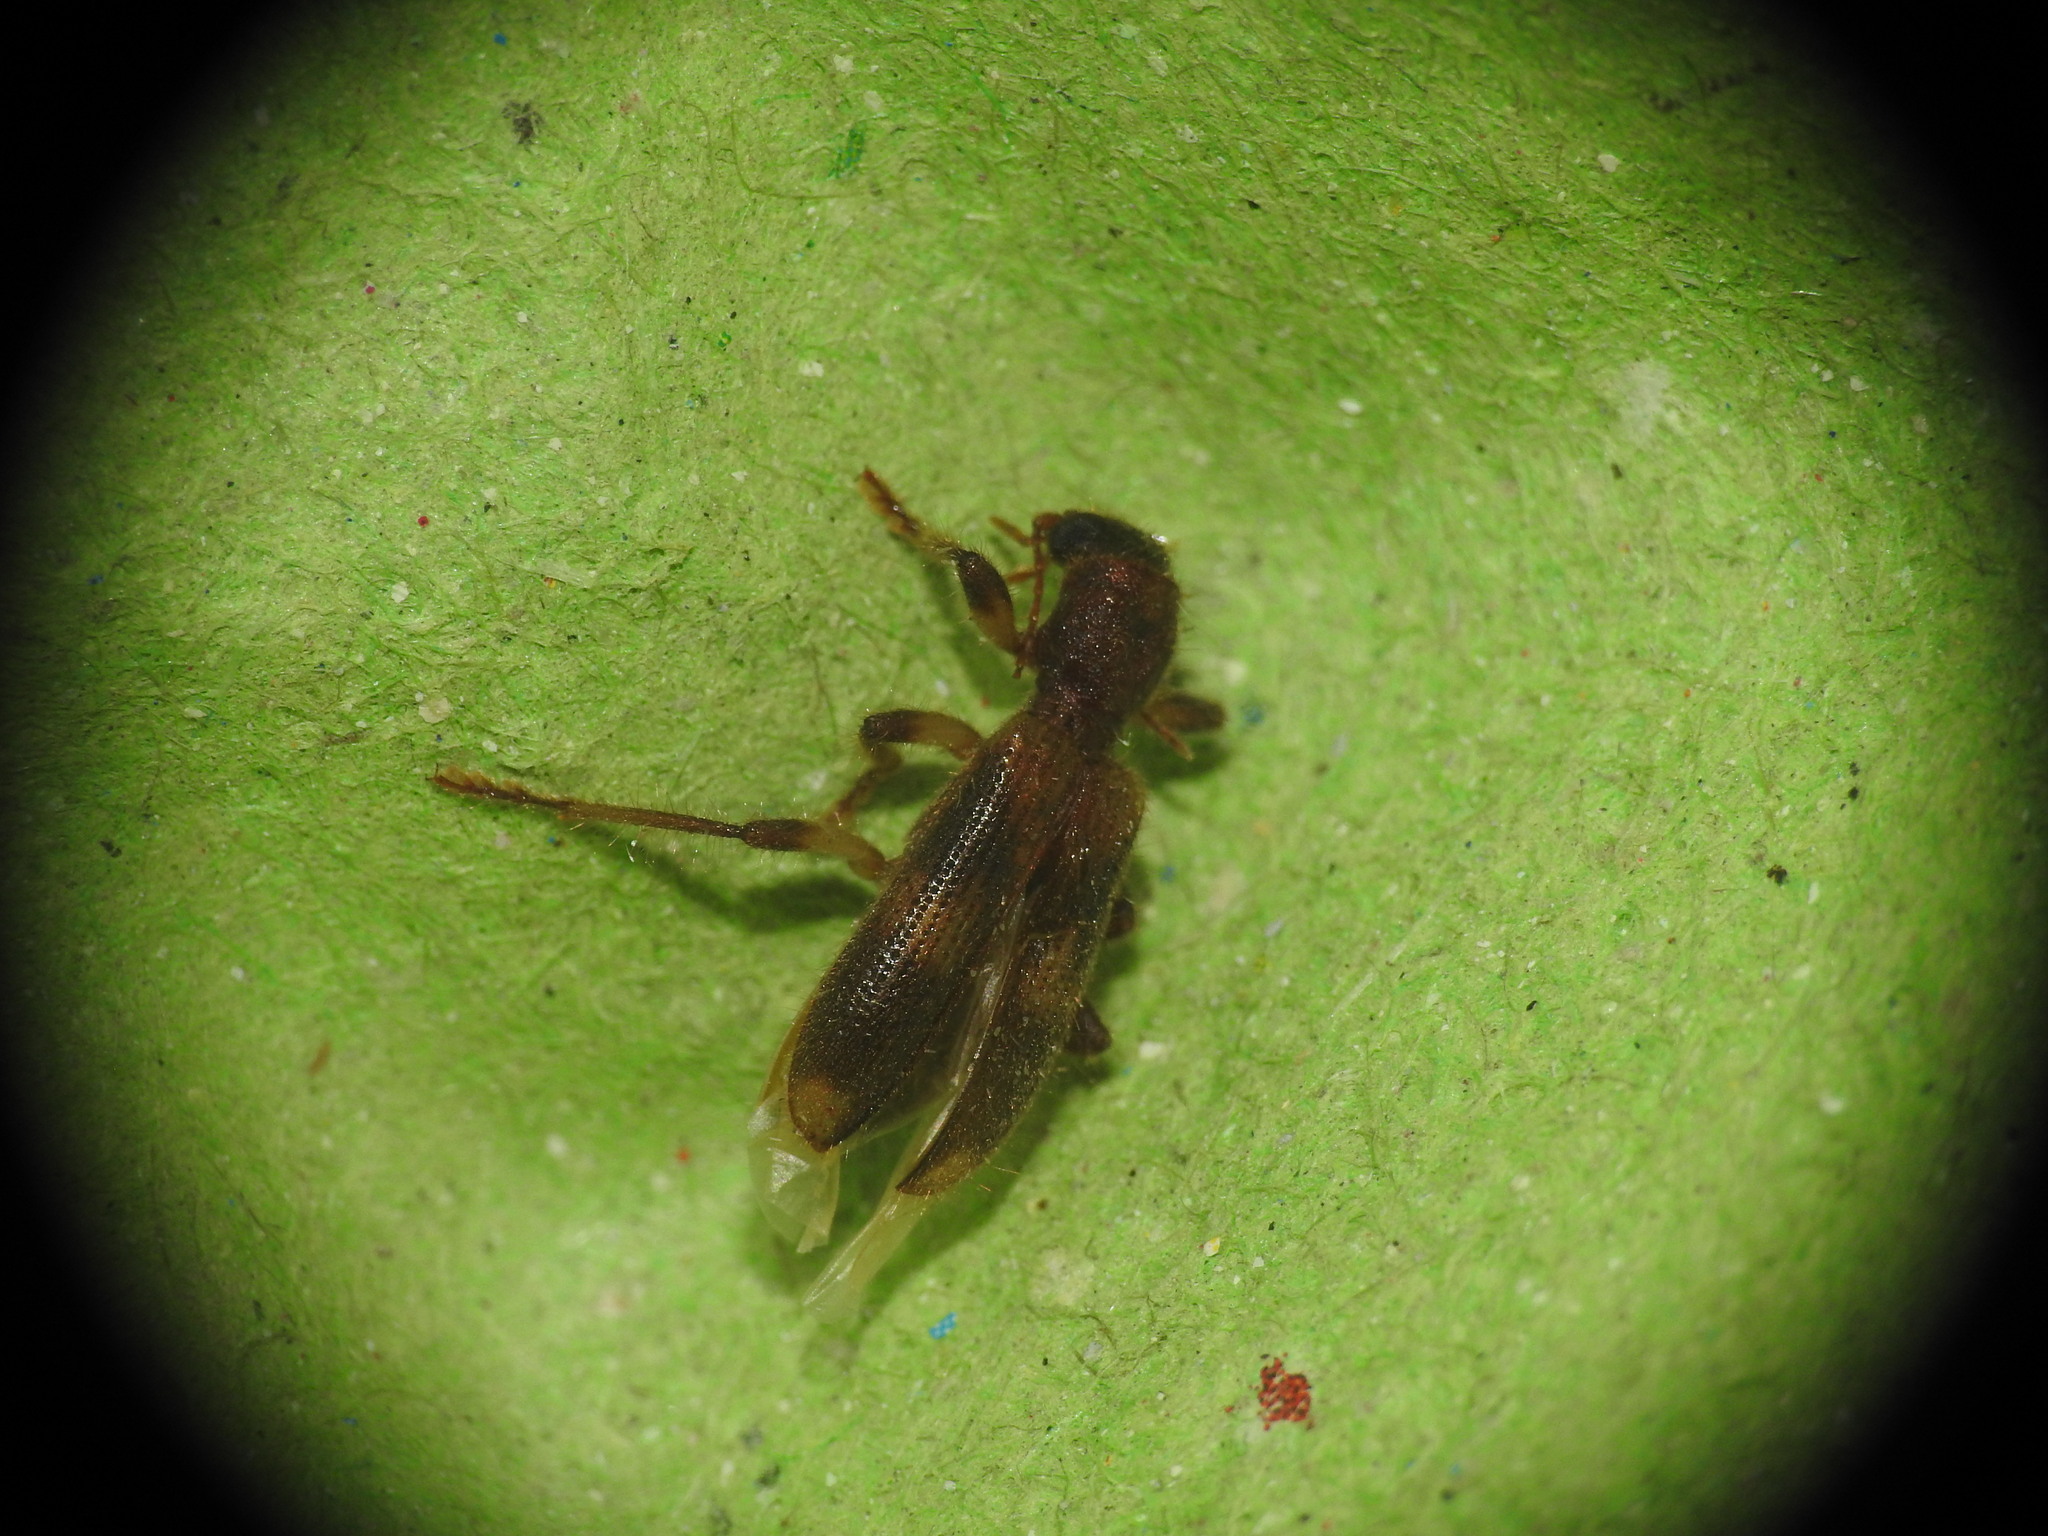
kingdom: Animalia
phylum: Arthropoda
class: Insecta
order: Coleoptera
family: Cleridae
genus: Opilo
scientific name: Opilo domesticus
